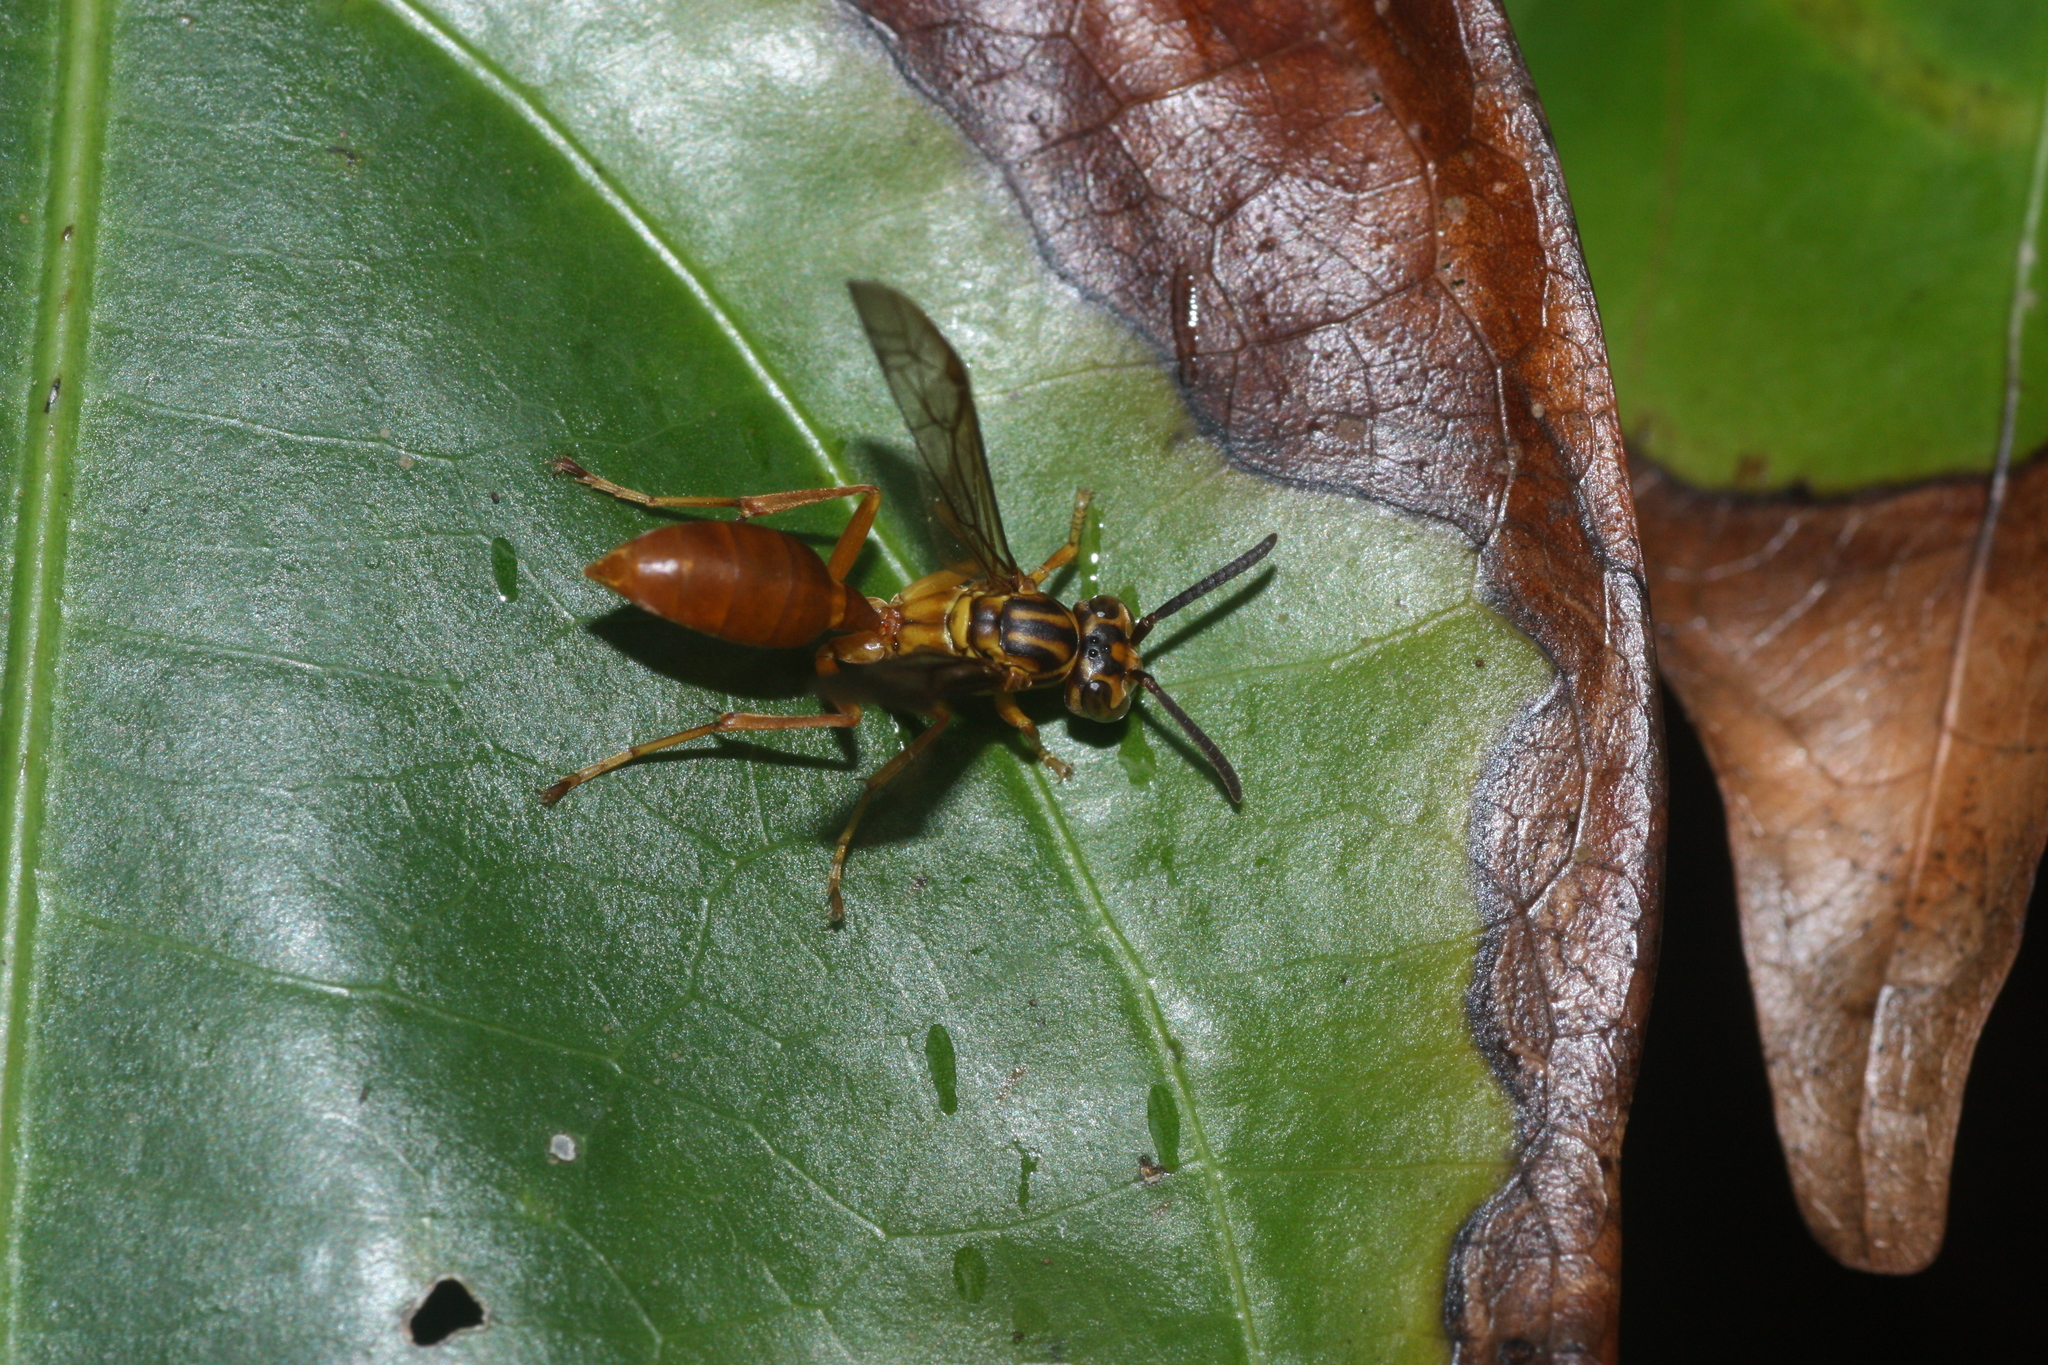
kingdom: Animalia
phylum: Arthropoda
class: Insecta
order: Hymenoptera
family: Vespidae
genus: Agelaia
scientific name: Agelaia centralis
